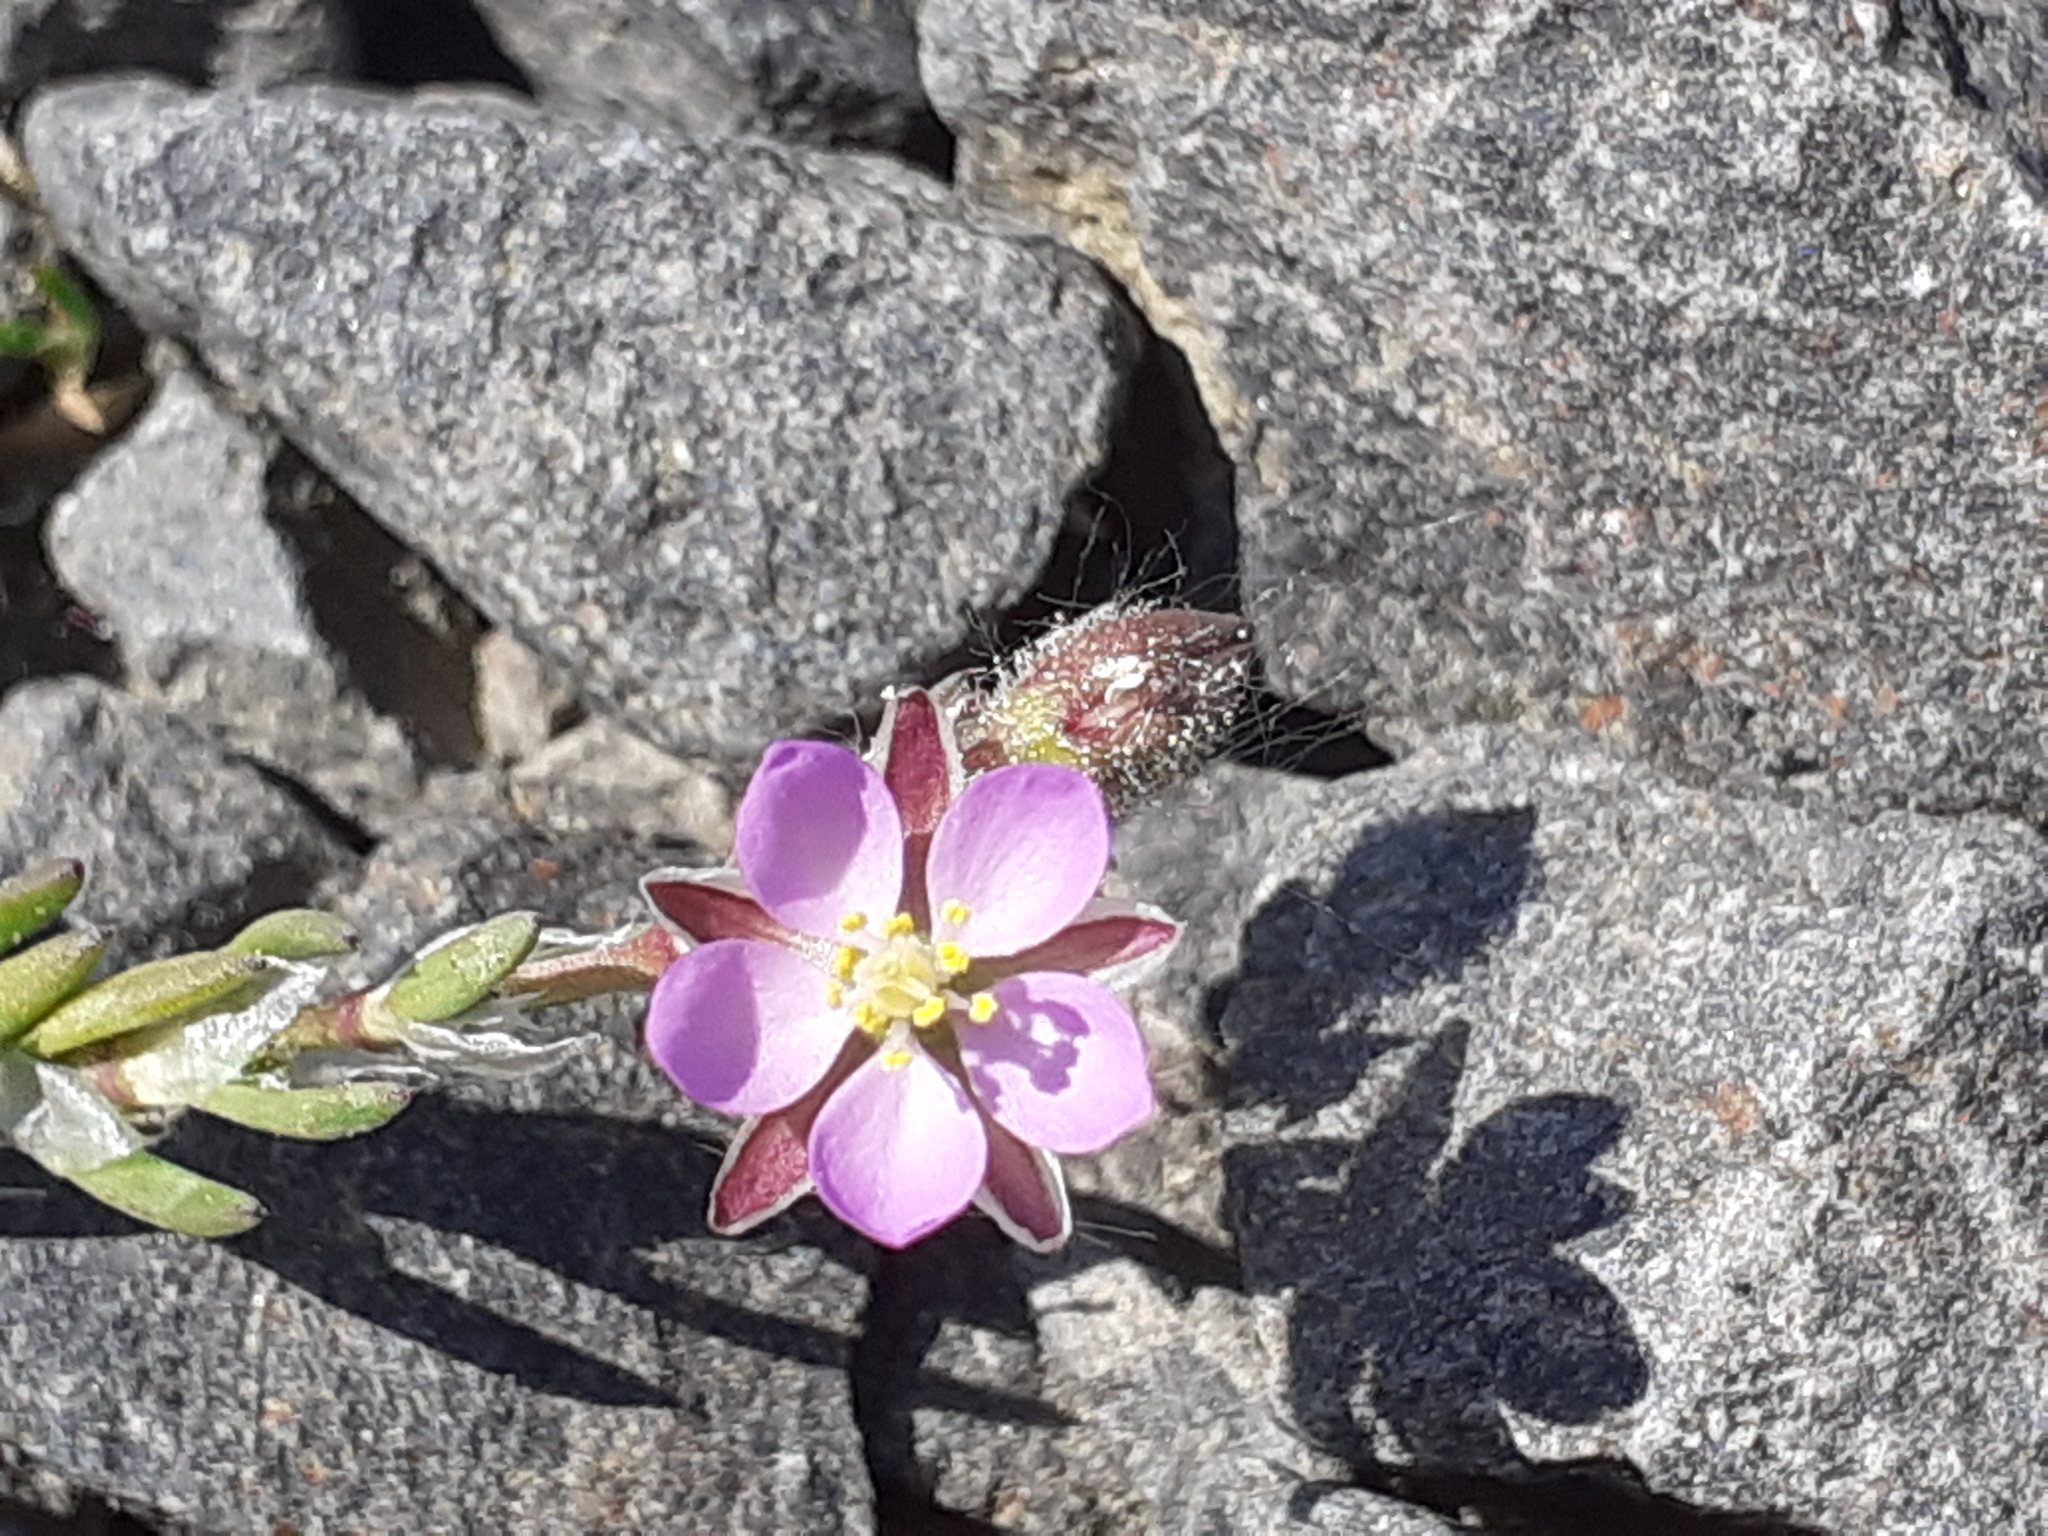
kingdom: Plantae
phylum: Tracheophyta
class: Magnoliopsida
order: Caryophyllales
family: Caryophyllaceae
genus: Spergularia
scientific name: Spergularia rubra
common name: Red sand-spurrey
